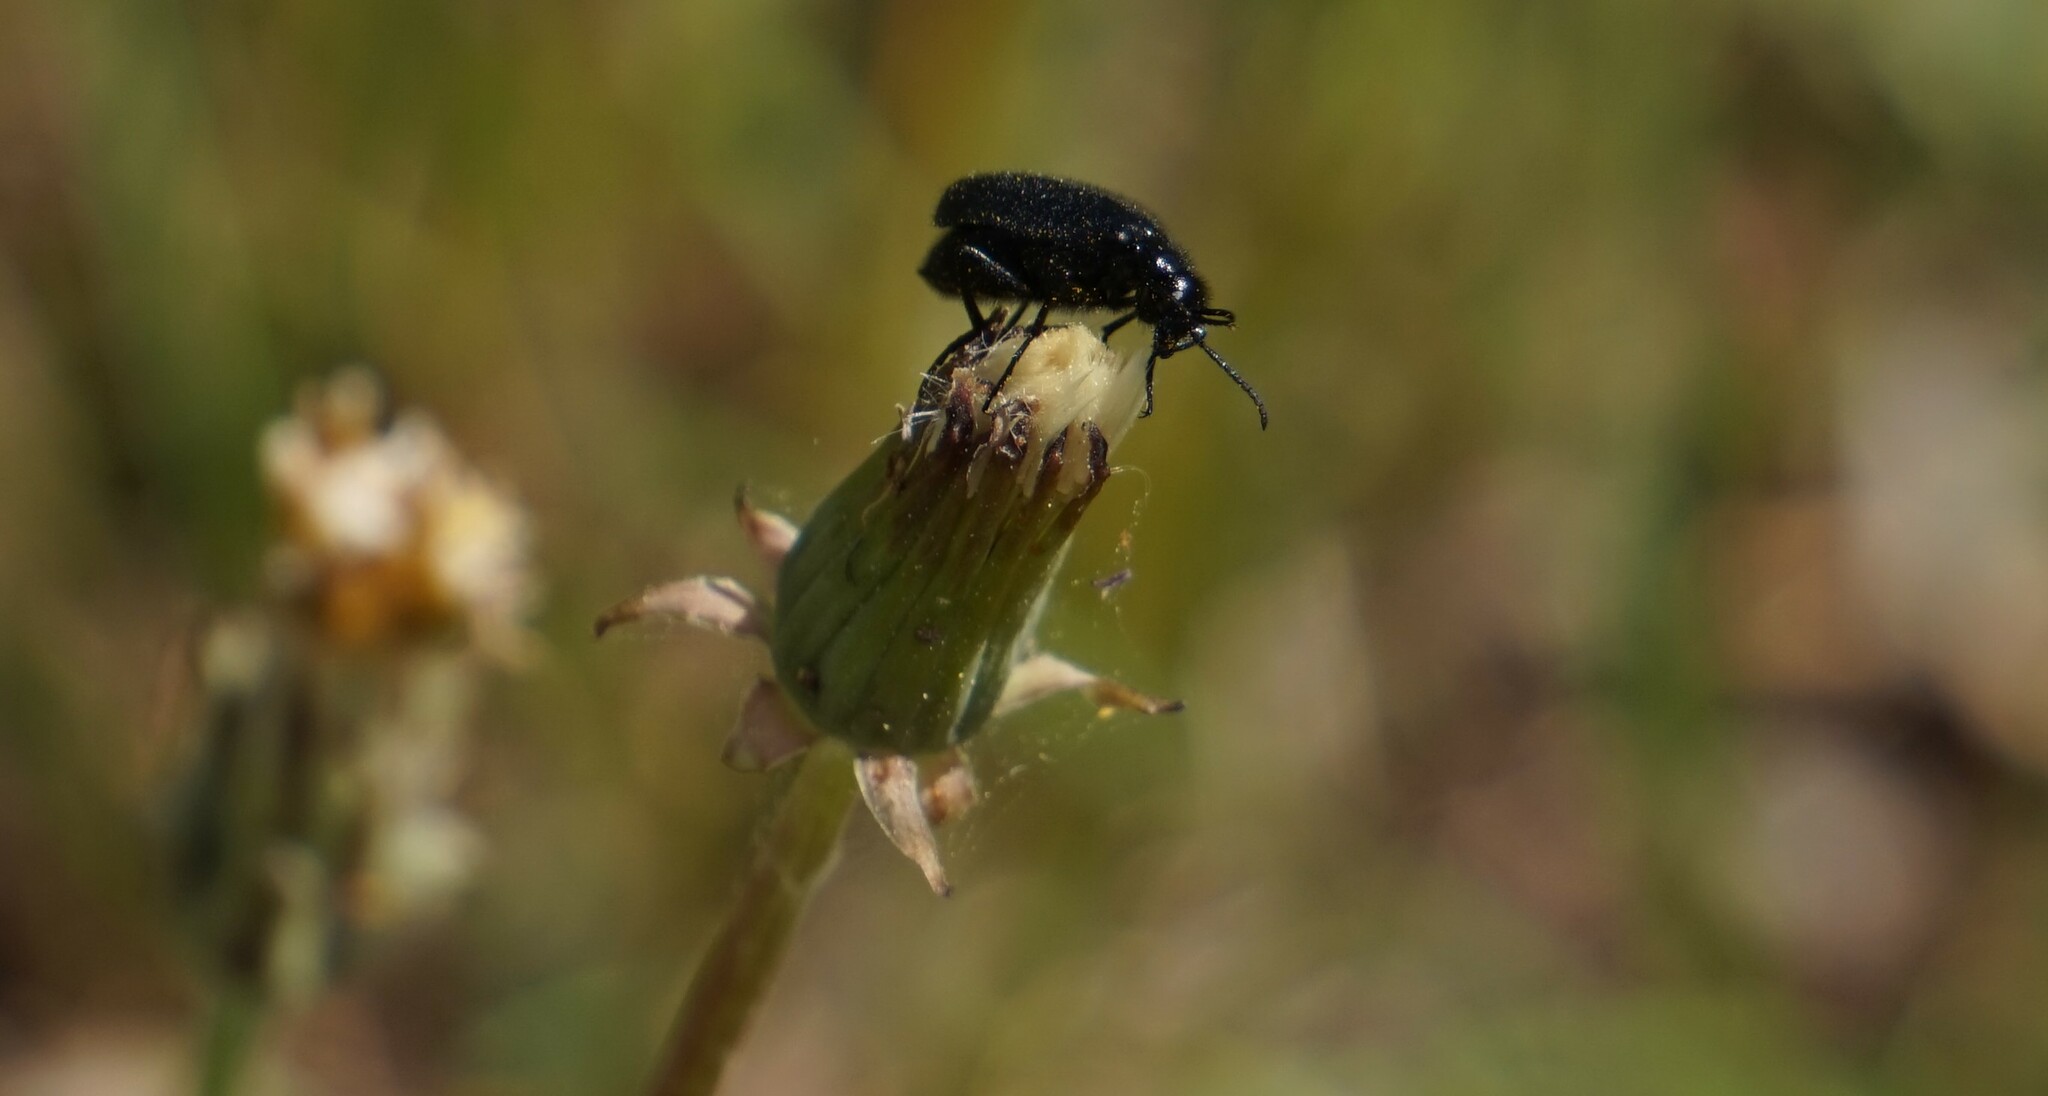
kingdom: Animalia
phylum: Arthropoda
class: Insecta
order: Coleoptera
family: Meloidae
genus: Epicauta
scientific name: Epicauta puncticollis
